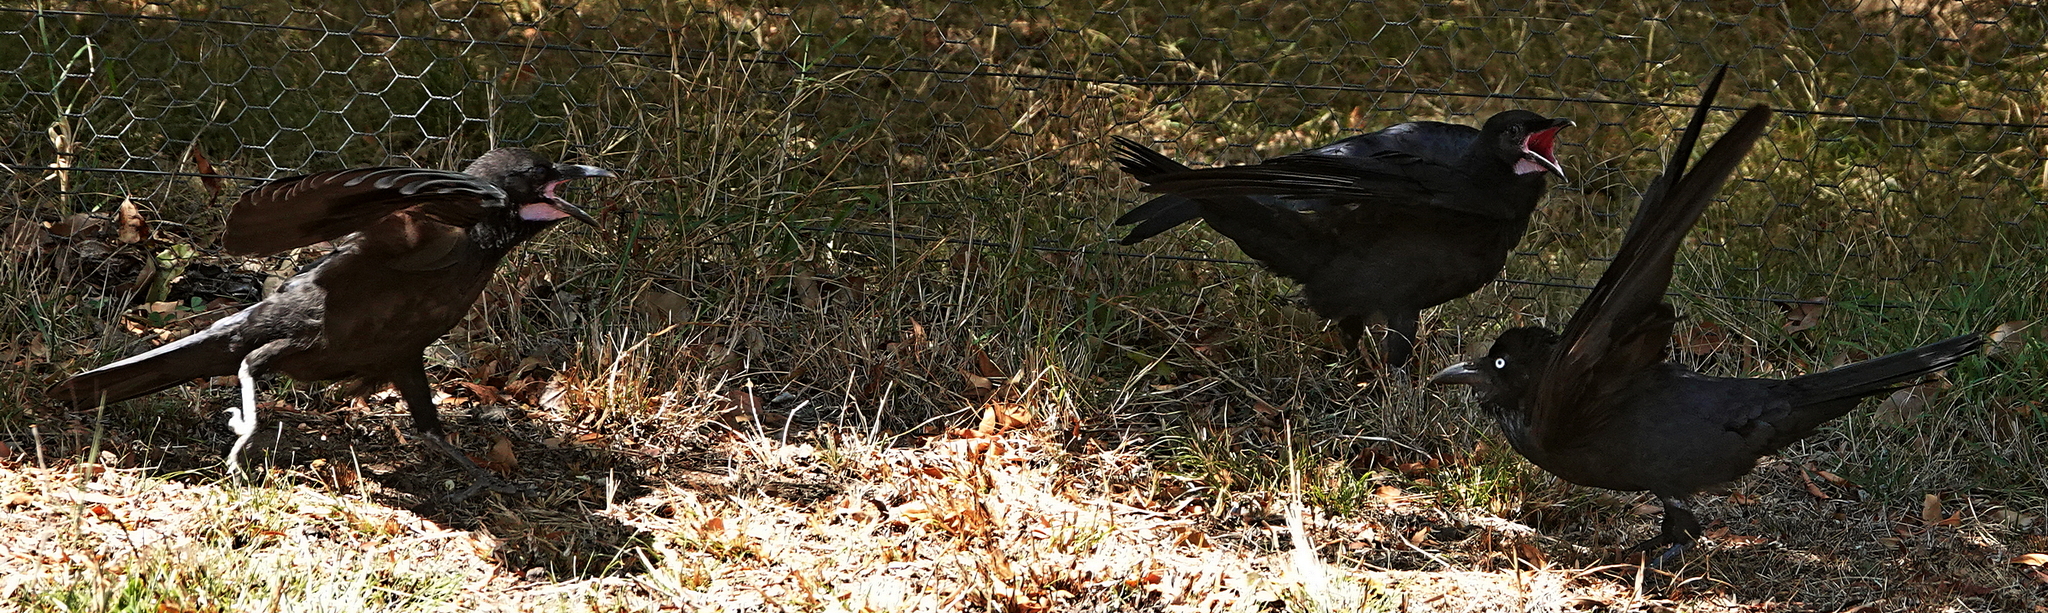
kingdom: Animalia
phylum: Chordata
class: Aves
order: Passeriformes
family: Corvidae
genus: Corvus
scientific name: Corvus coronoides
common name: Australian raven
